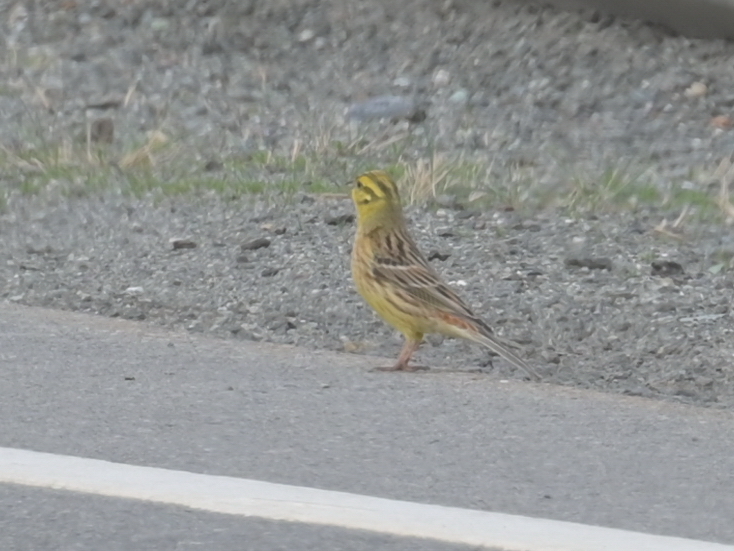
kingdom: Animalia
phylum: Chordata
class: Aves
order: Passeriformes
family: Emberizidae
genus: Emberiza
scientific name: Emberiza citrinella
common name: Yellowhammer
